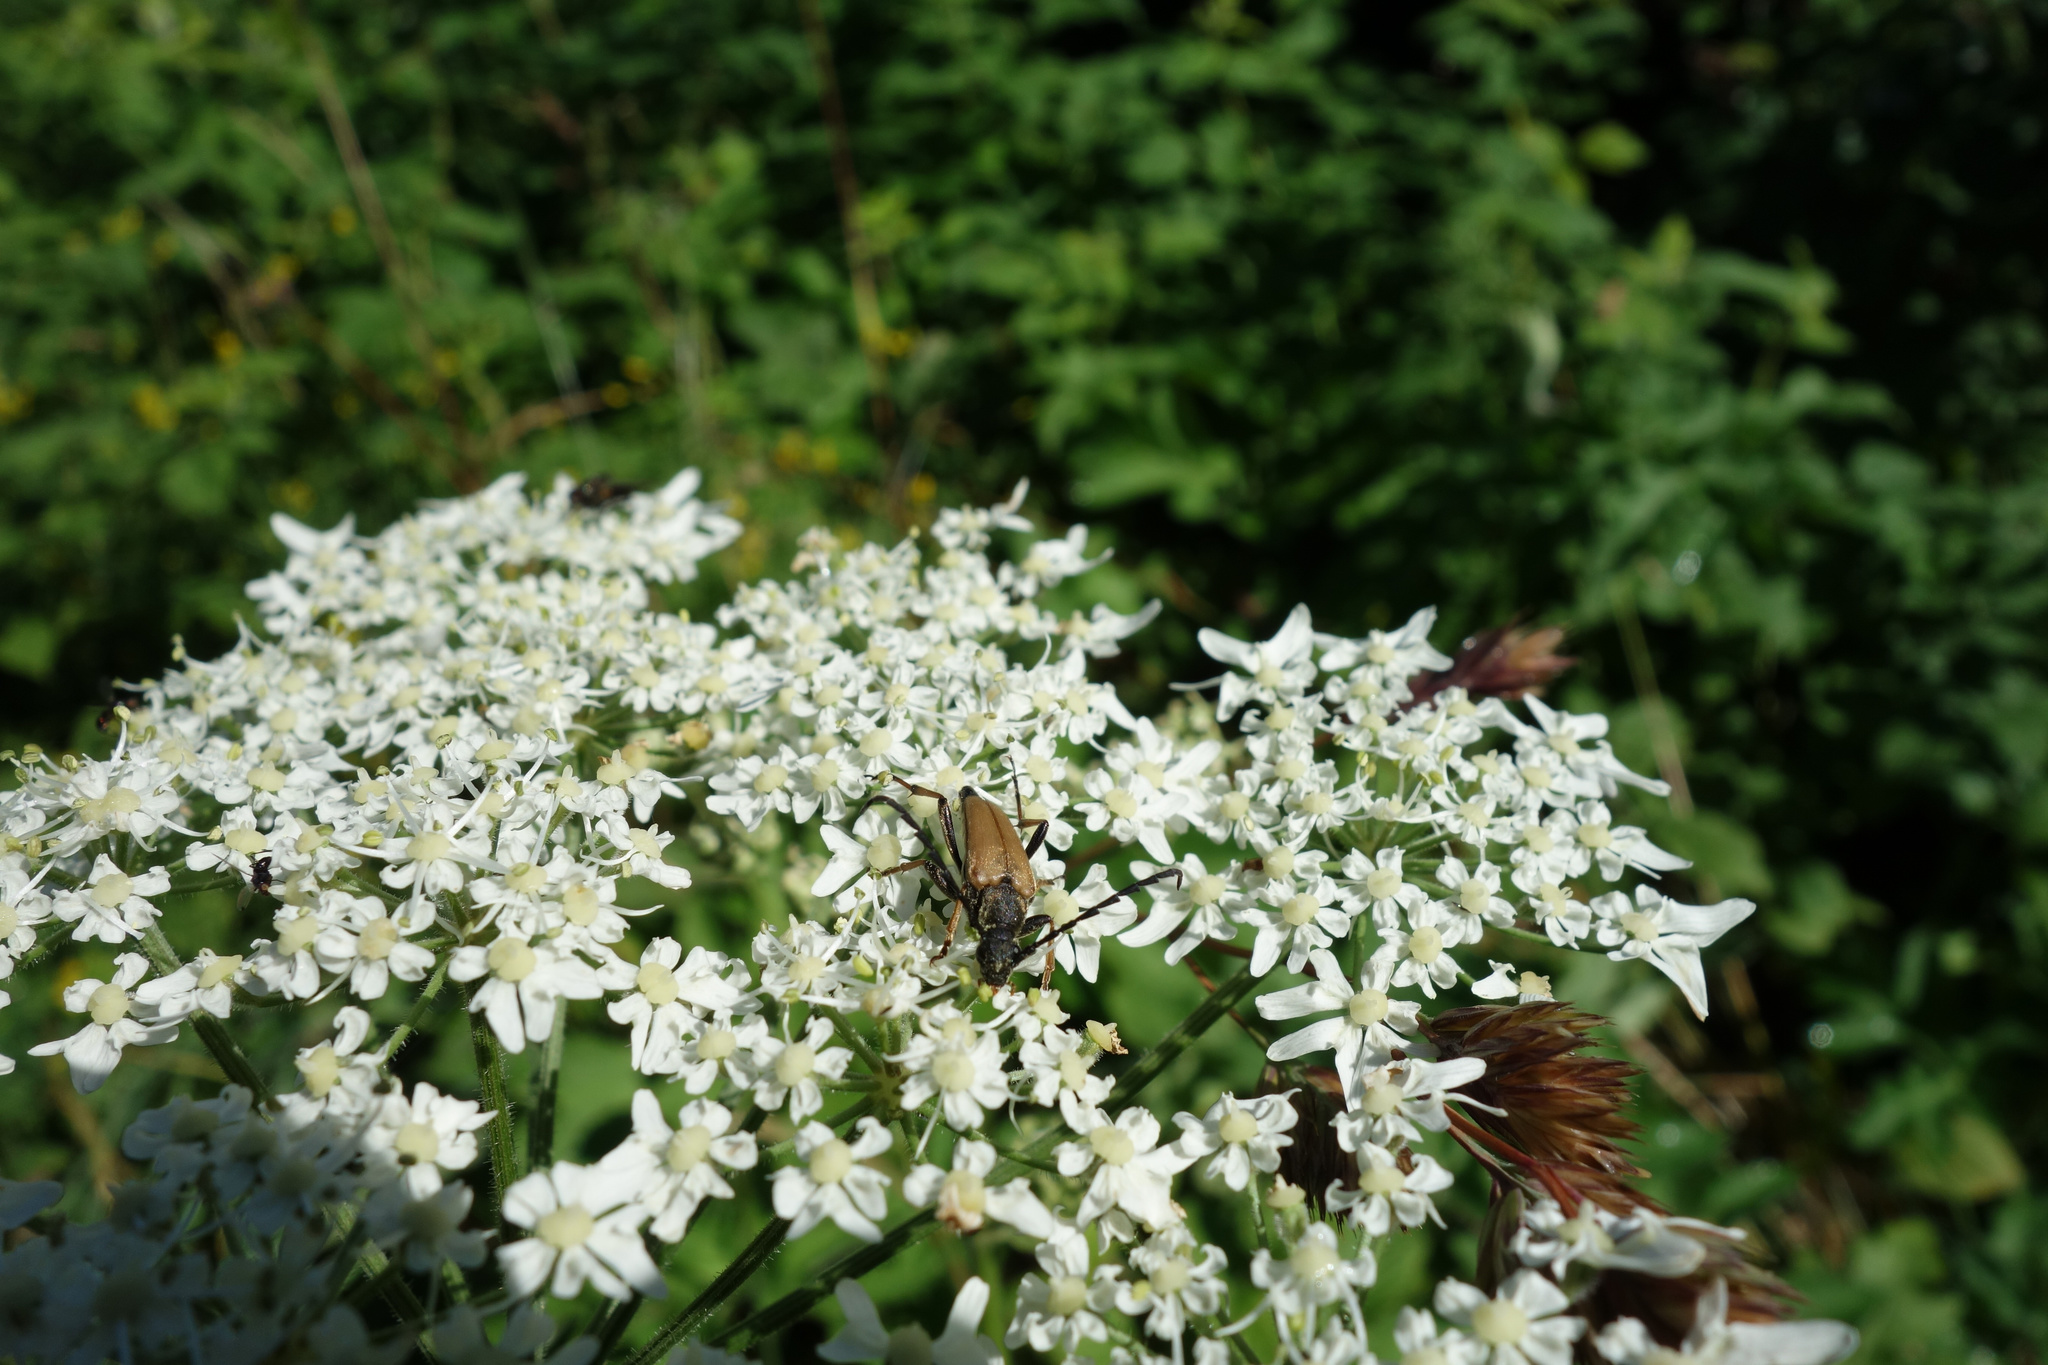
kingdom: Animalia
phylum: Arthropoda
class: Insecta
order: Coleoptera
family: Cerambycidae
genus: Stictoleptura
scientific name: Stictoleptura rubra
